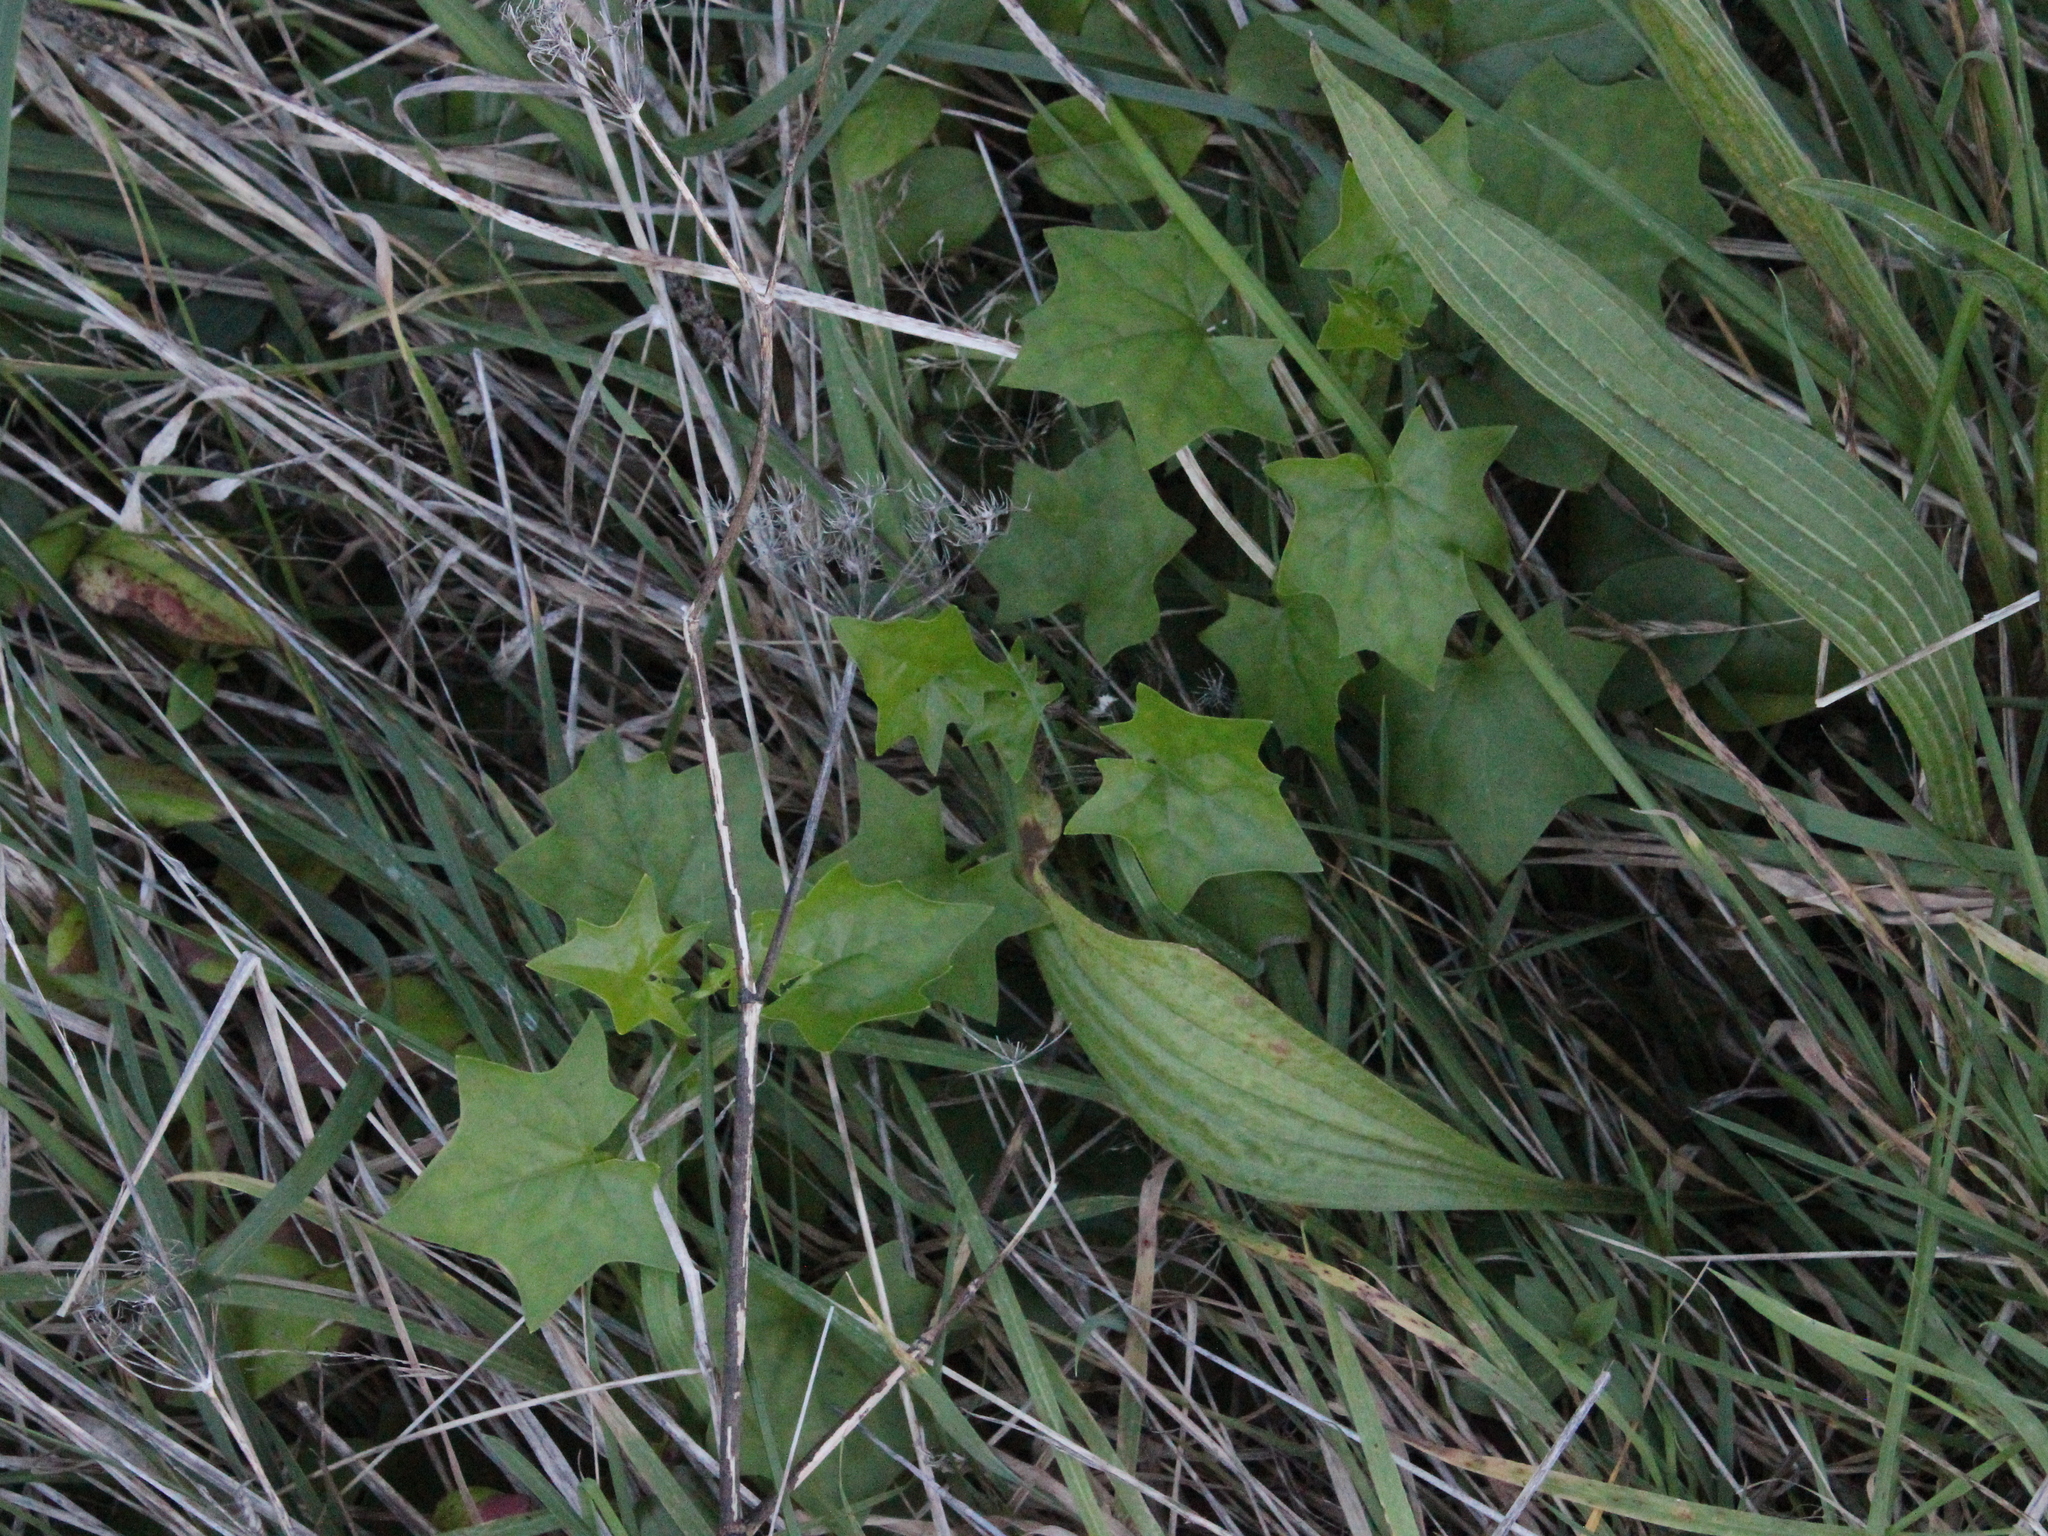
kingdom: Plantae
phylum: Tracheophyta
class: Magnoliopsida
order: Asterales
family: Asteraceae
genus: Delairea
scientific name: Delairea odorata
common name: Cape-ivy
